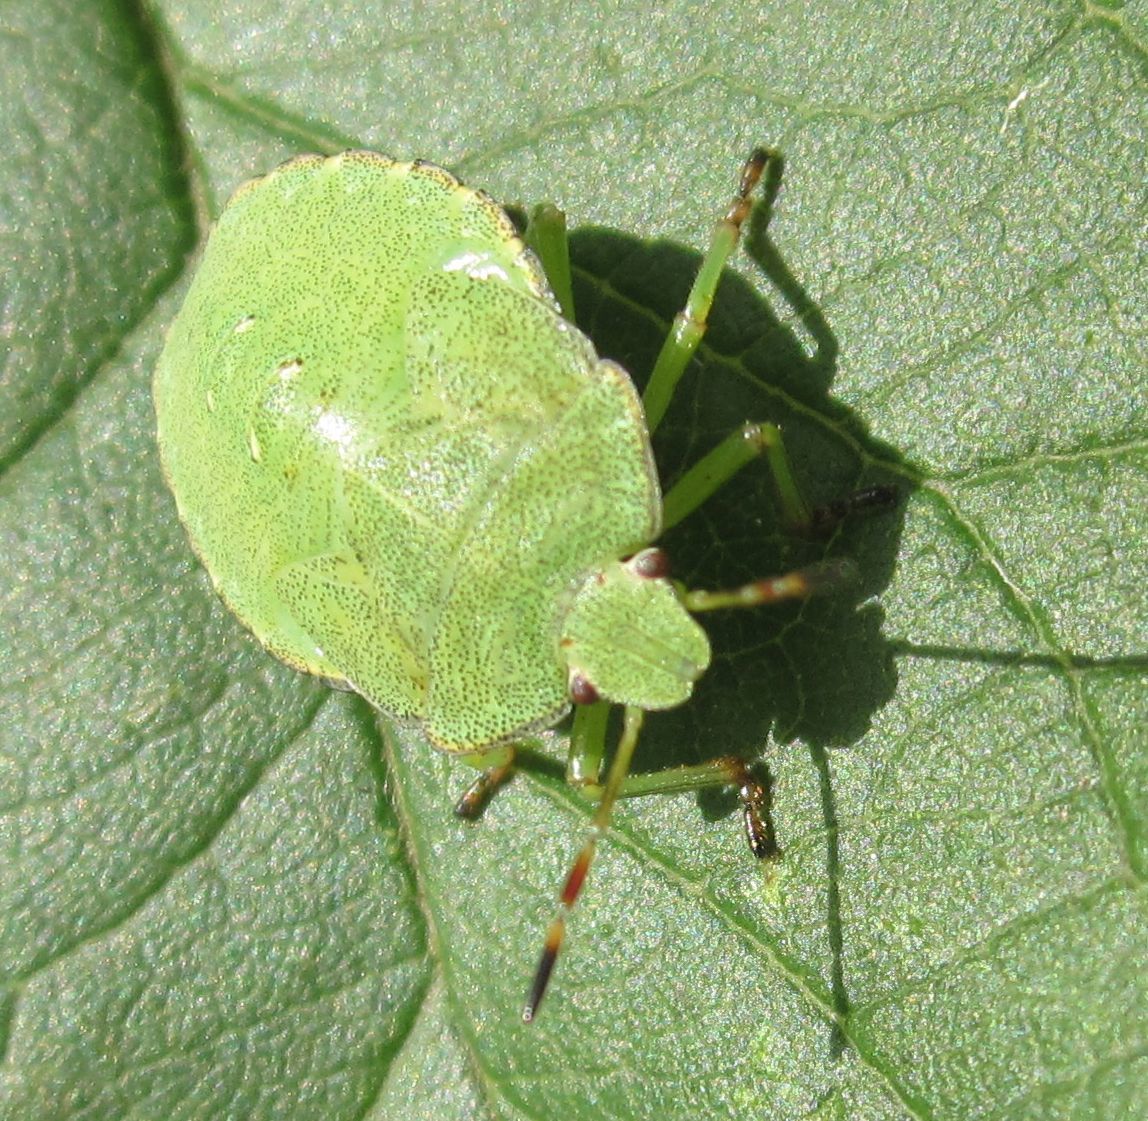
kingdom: Animalia
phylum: Arthropoda
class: Insecta
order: Hemiptera
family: Pentatomidae
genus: Palomena
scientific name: Palomena prasina
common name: Green shieldbug
